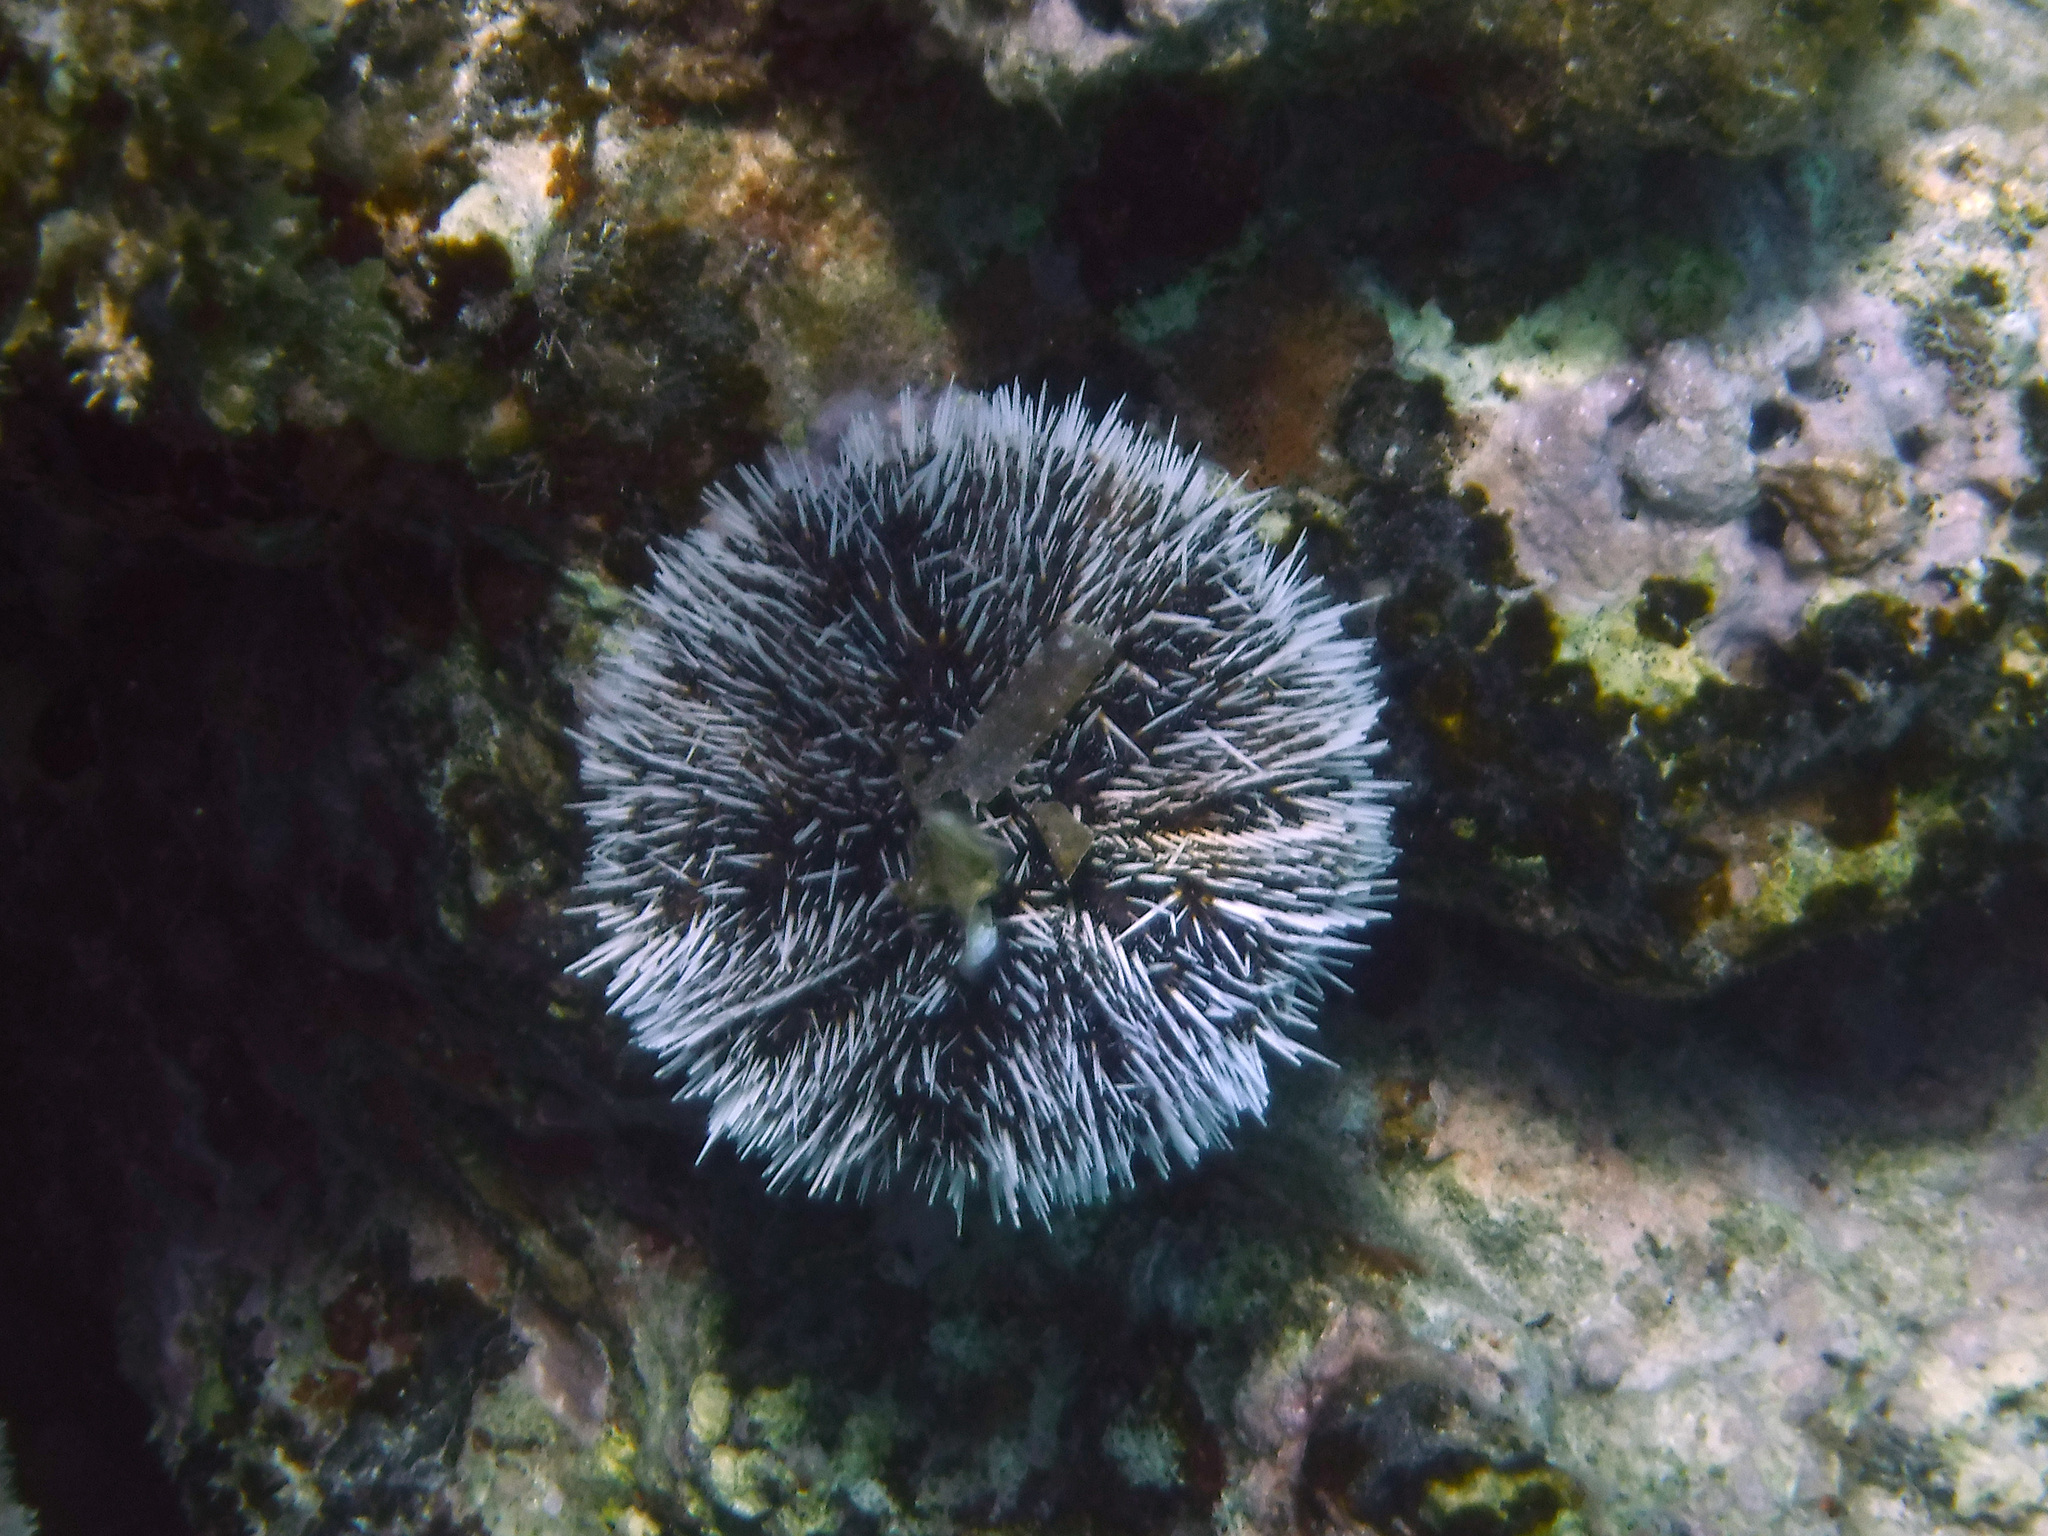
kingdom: Animalia
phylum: Echinodermata
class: Echinoidea
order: Camarodonta
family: Toxopneustidae
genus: Tripneustes
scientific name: Tripneustes ventricosus
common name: West indian sea egg
